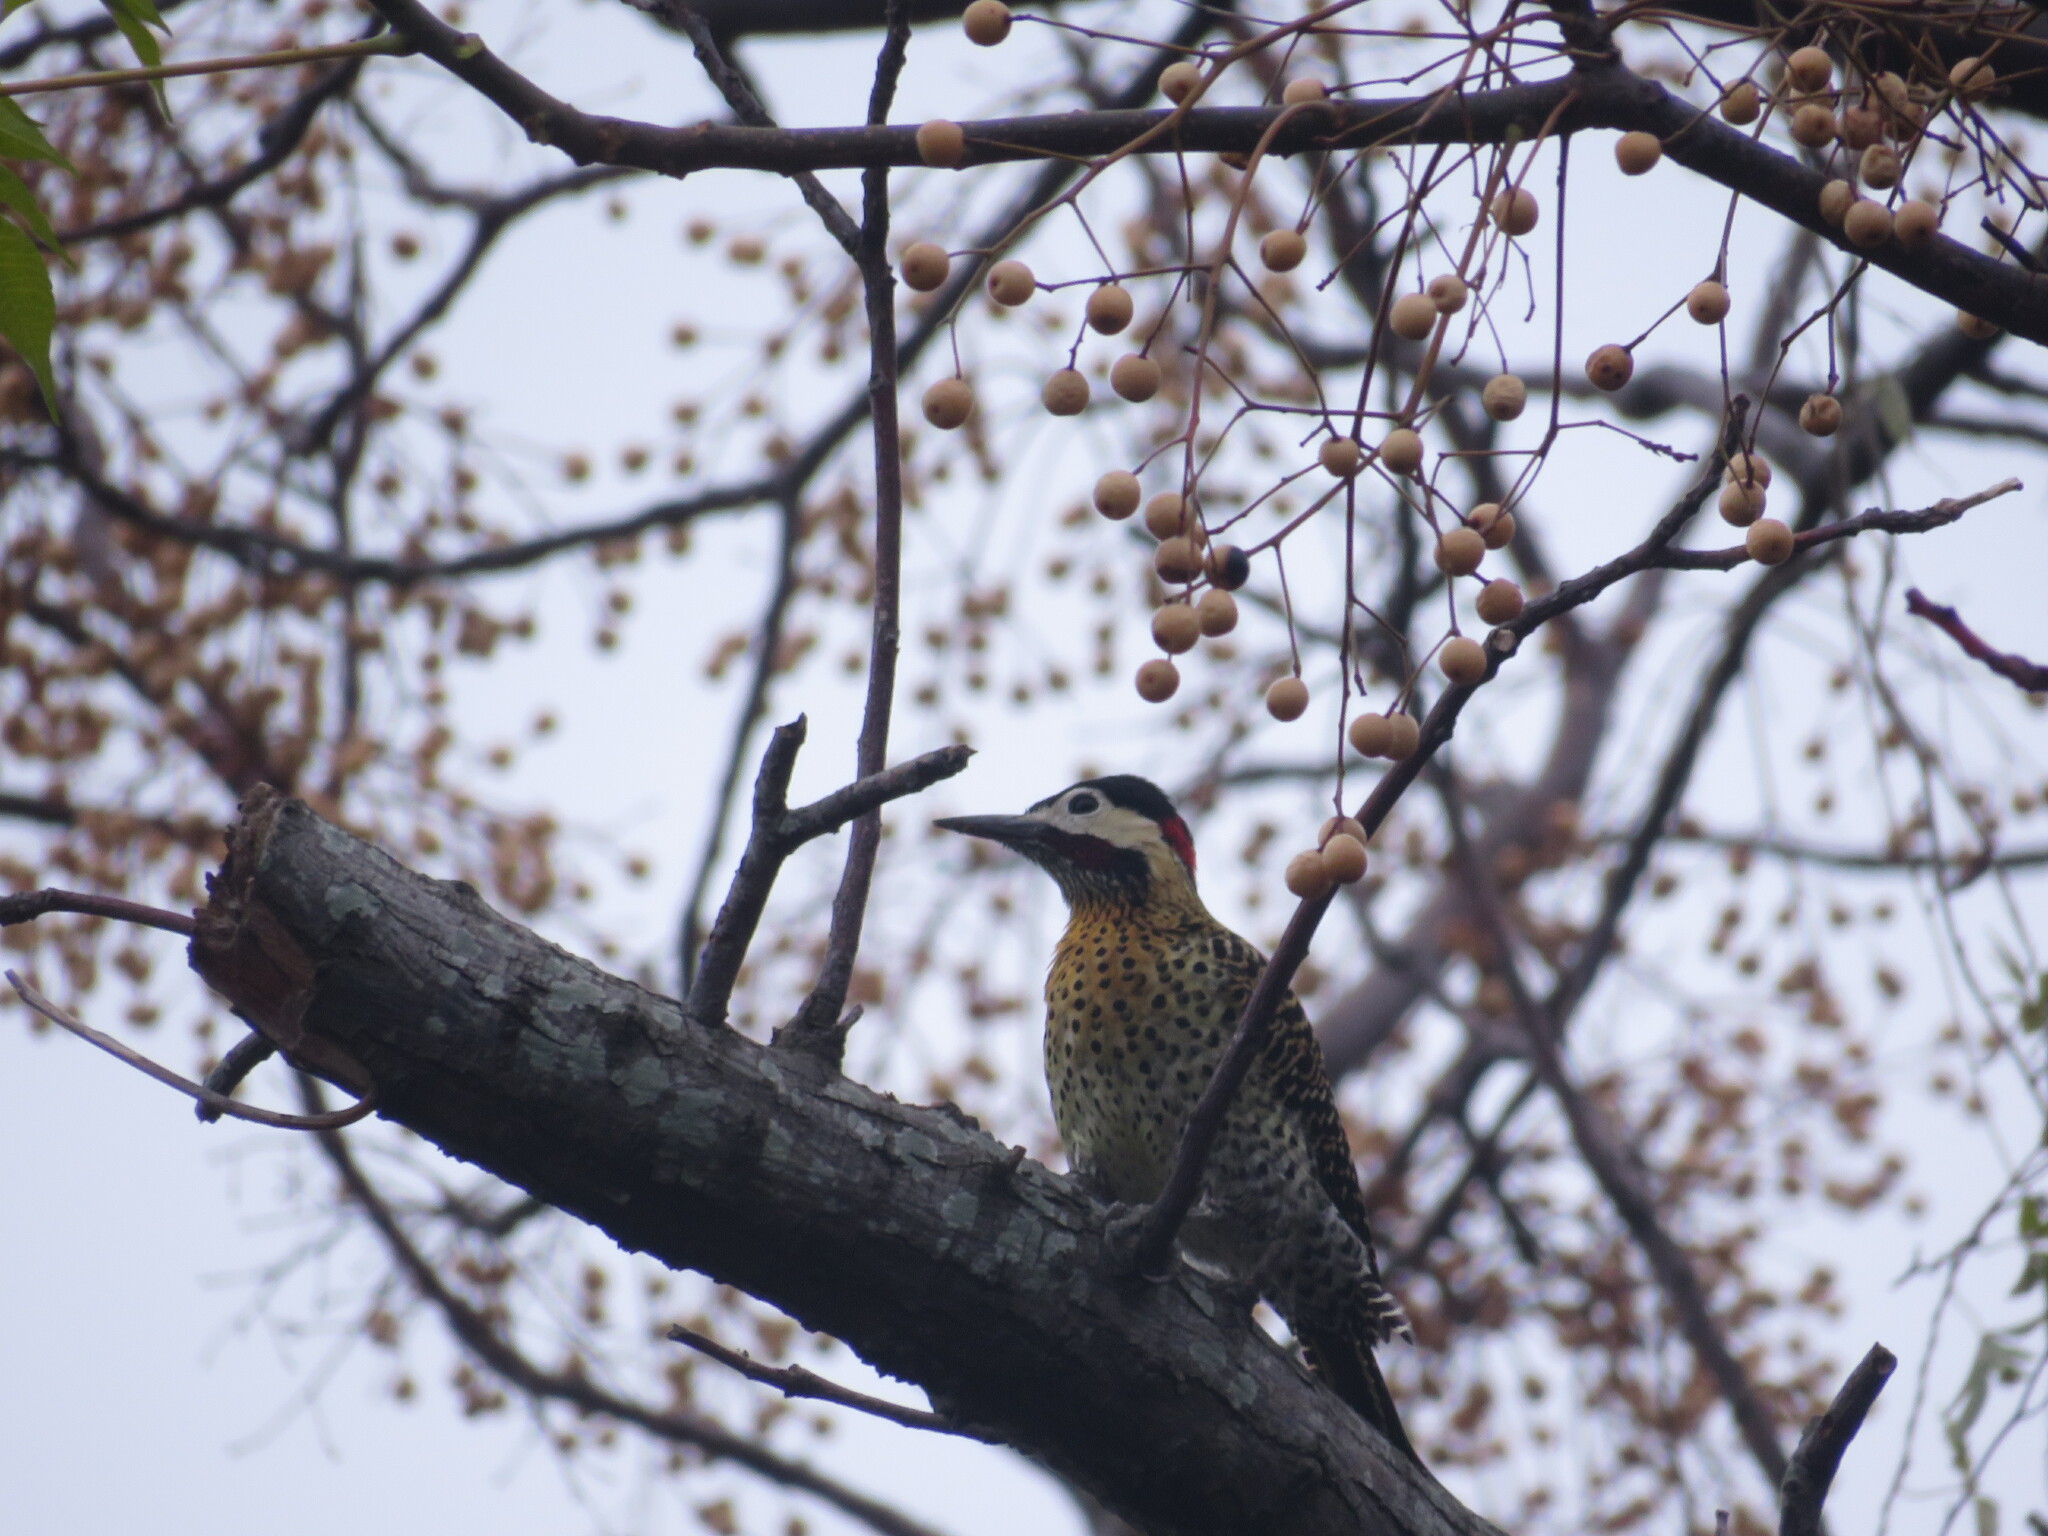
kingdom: Animalia
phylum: Chordata
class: Aves
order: Piciformes
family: Picidae
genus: Colaptes
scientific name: Colaptes melanochloros
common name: Green-barred woodpecker
